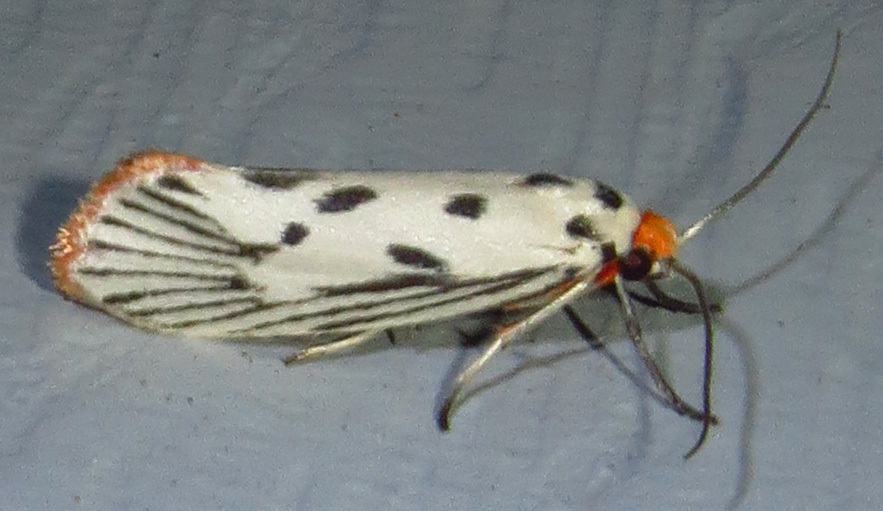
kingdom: Animalia
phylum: Arthropoda
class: Insecta
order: Lepidoptera
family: Lacturidae
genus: Lactura
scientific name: Lactura
